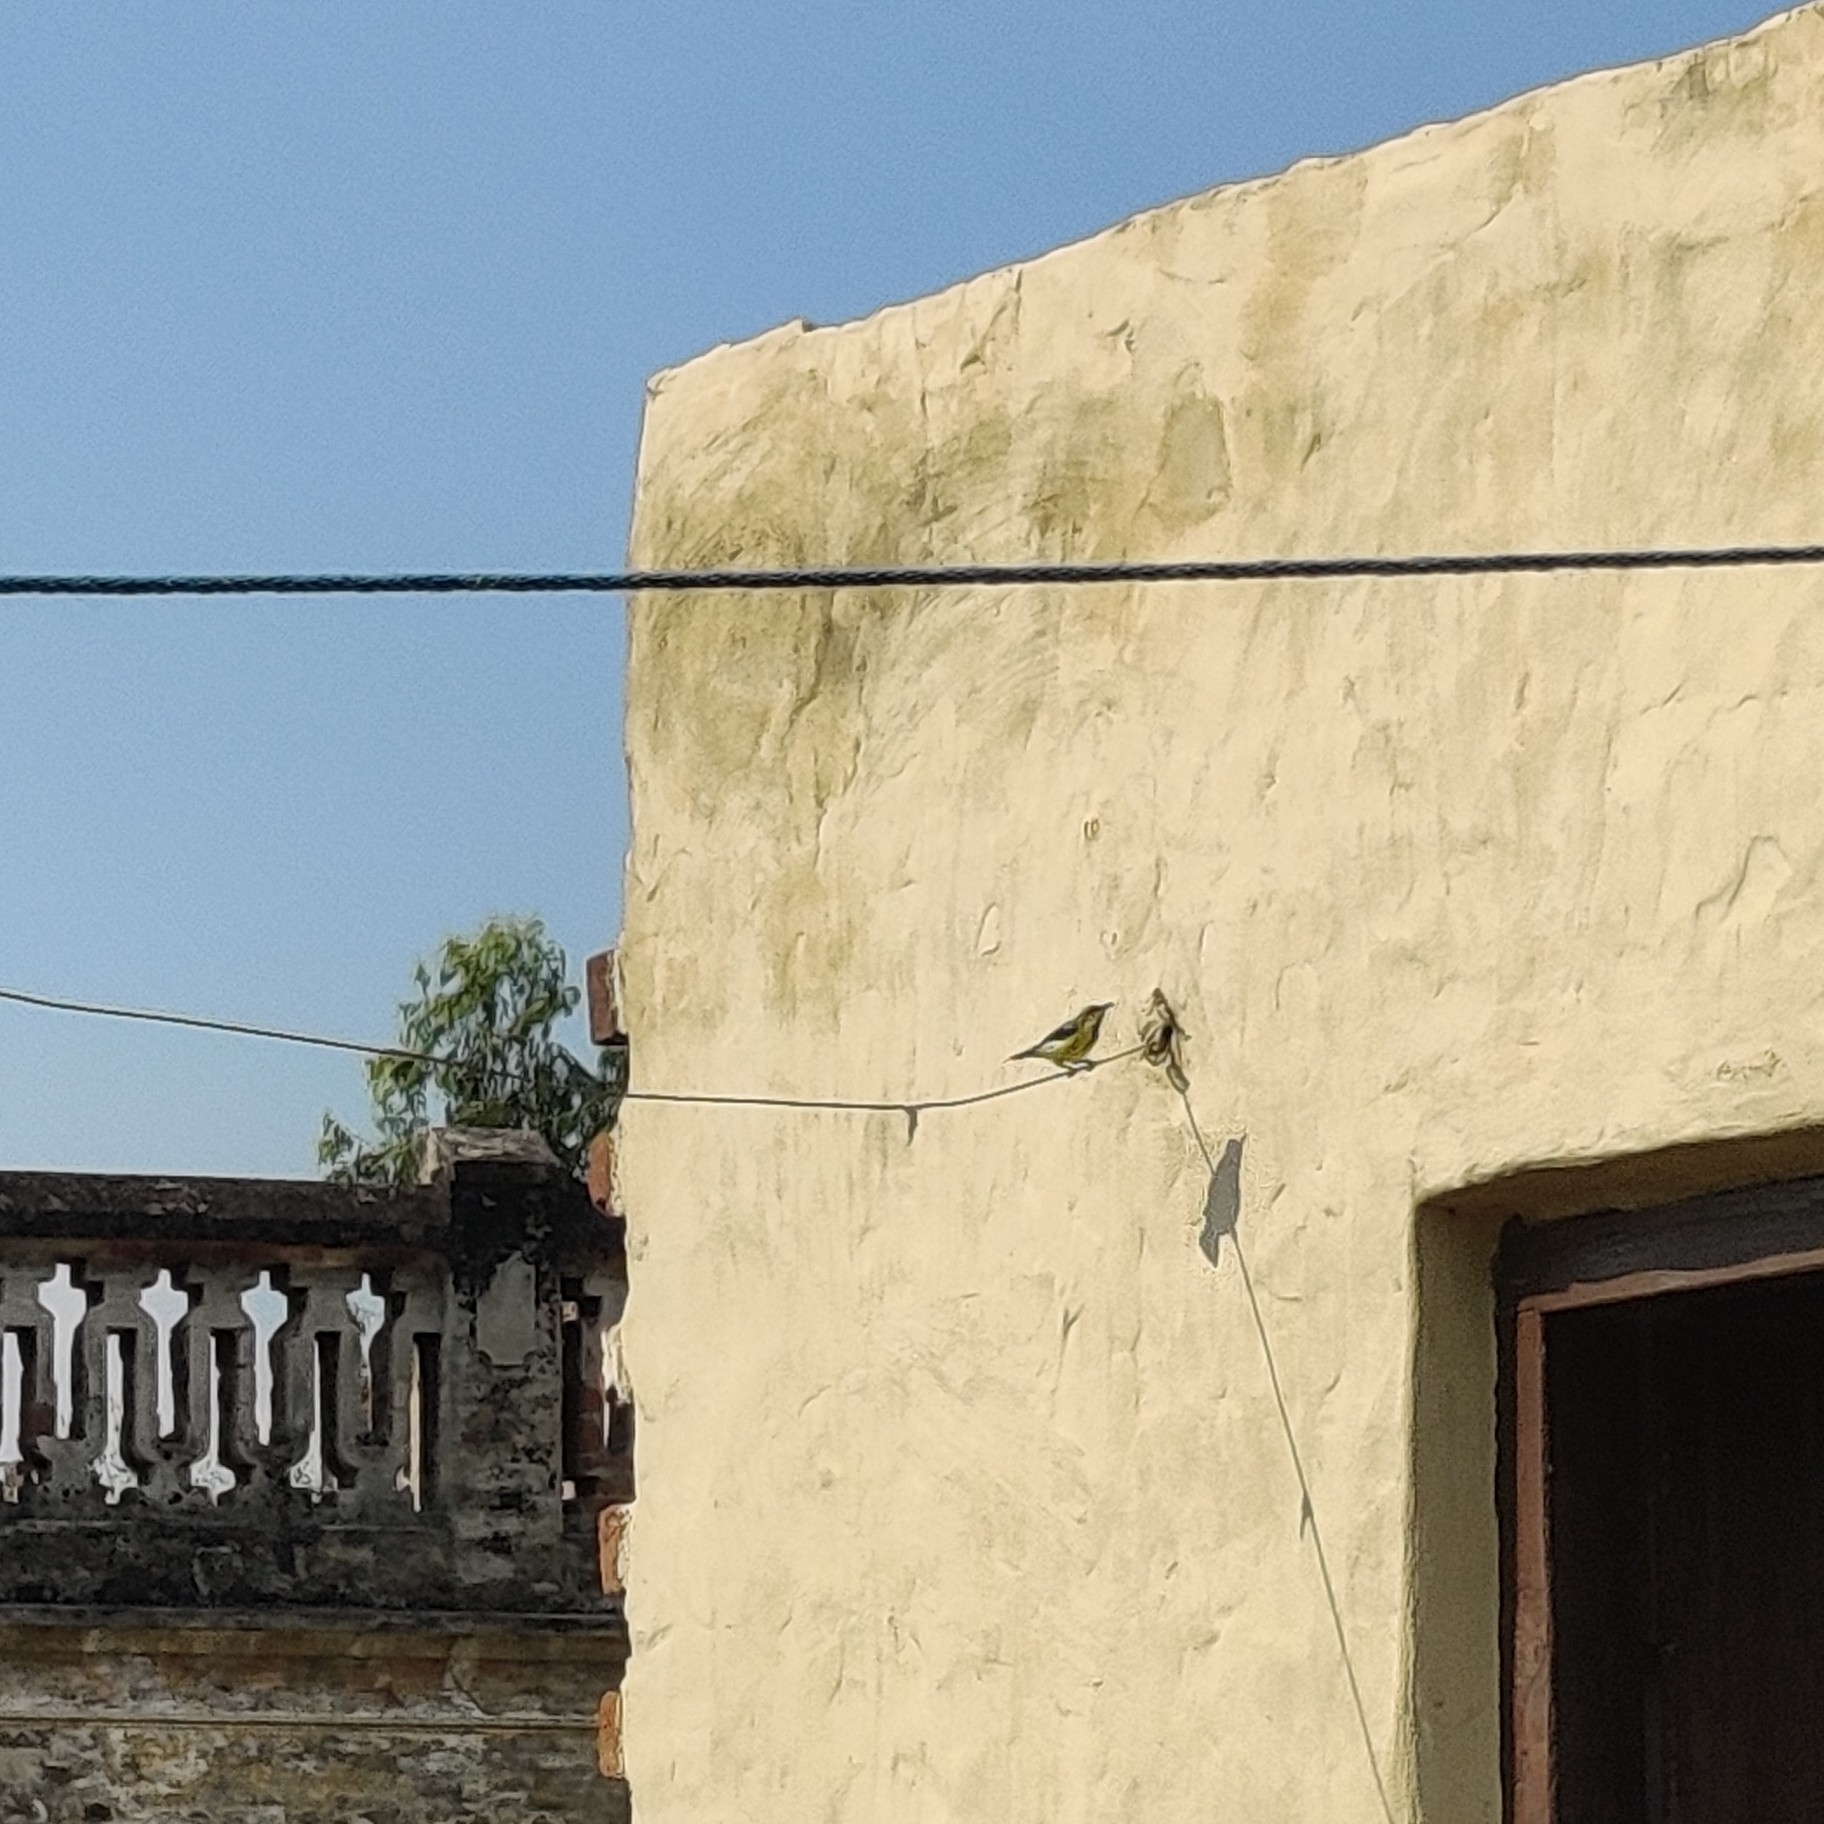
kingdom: Animalia
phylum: Chordata
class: Aves
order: Passeriformes
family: Nectariniidae
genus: Cinnyris
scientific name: Cinnyris asiaticus
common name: Purple sunbird
